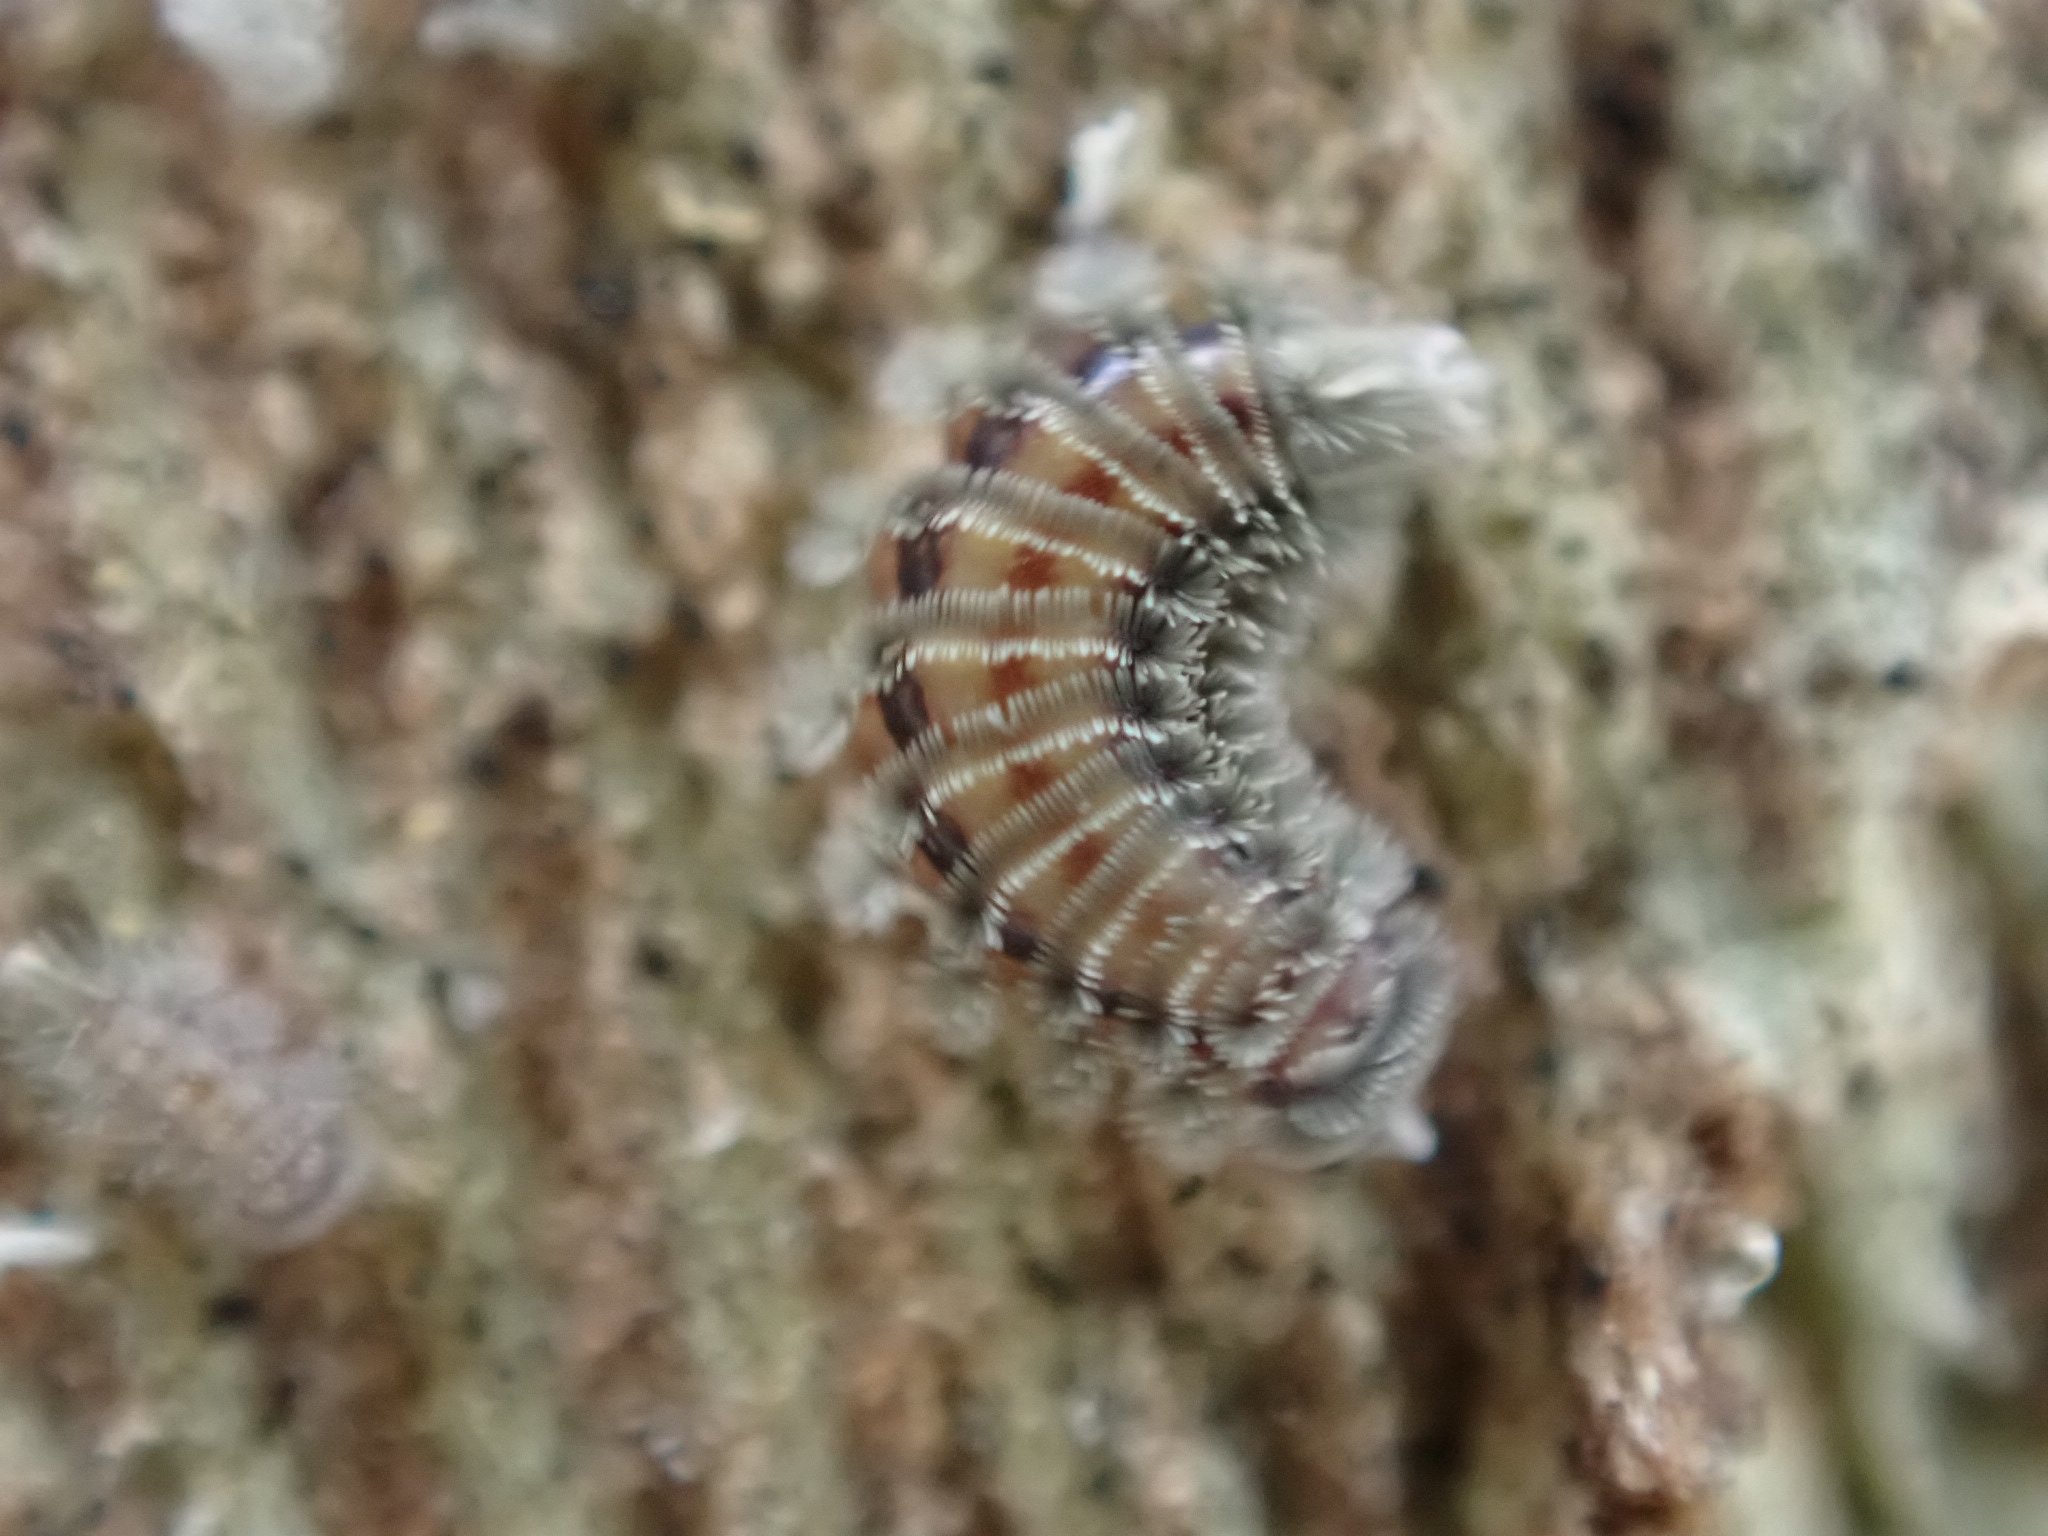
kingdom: Animalia
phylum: Arthropoda
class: Diplopoda
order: Polyxenida
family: Polyxenidae
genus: Polyxenus
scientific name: Polyxenus lagurus
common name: Bristly millipede
